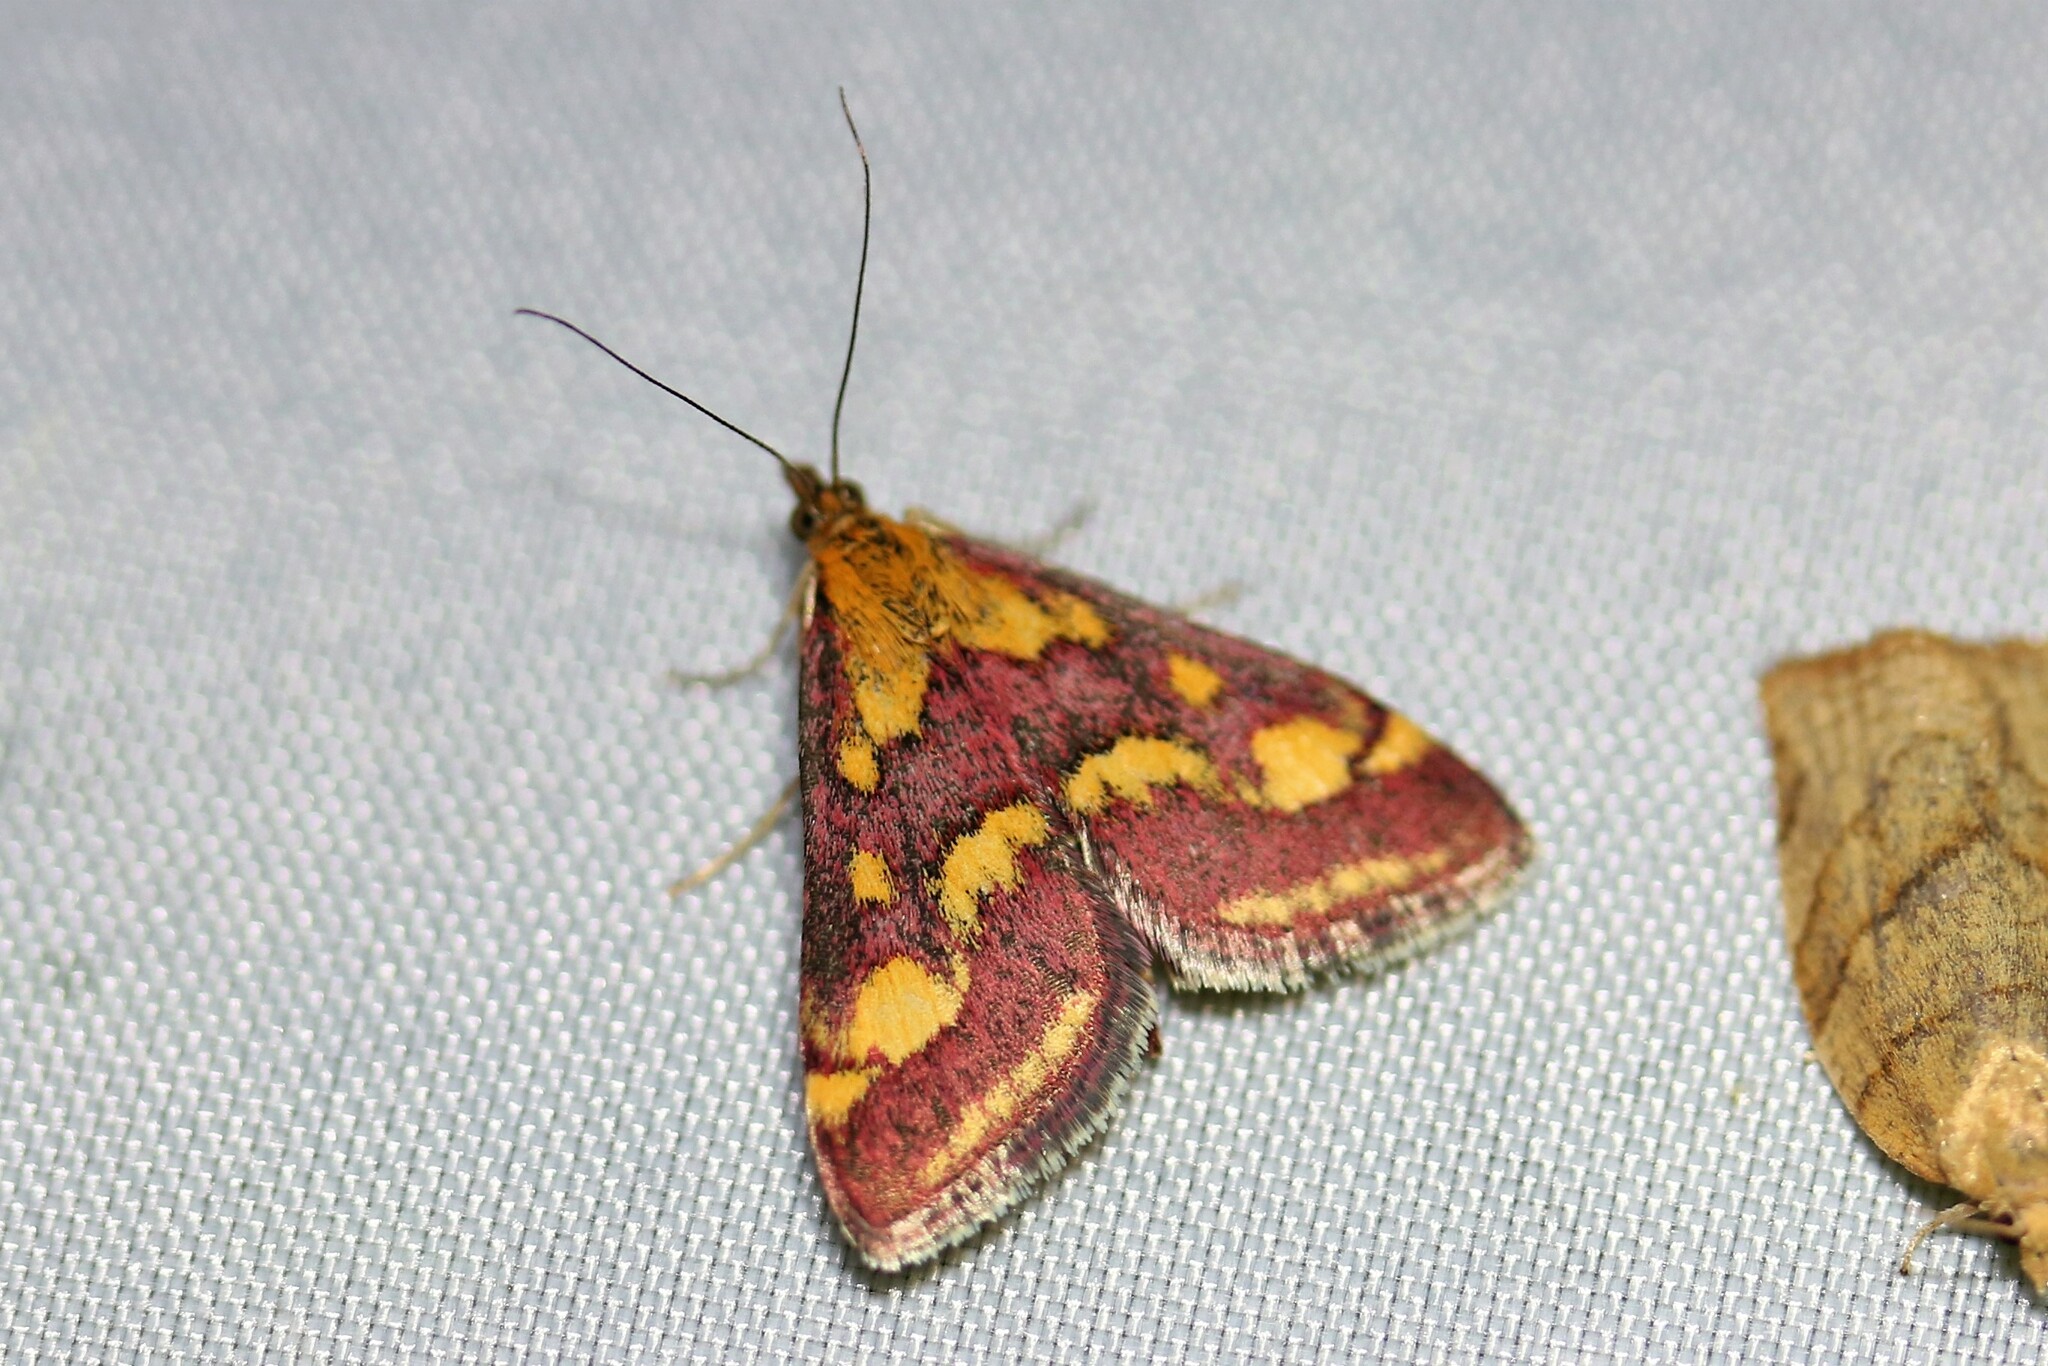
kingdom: Animalia
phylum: Arthropoda
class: Insecta
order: Lepidoptera
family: Crambidae
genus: Pyrausta
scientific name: Pyrausta purpuralis
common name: Common purple & gold
